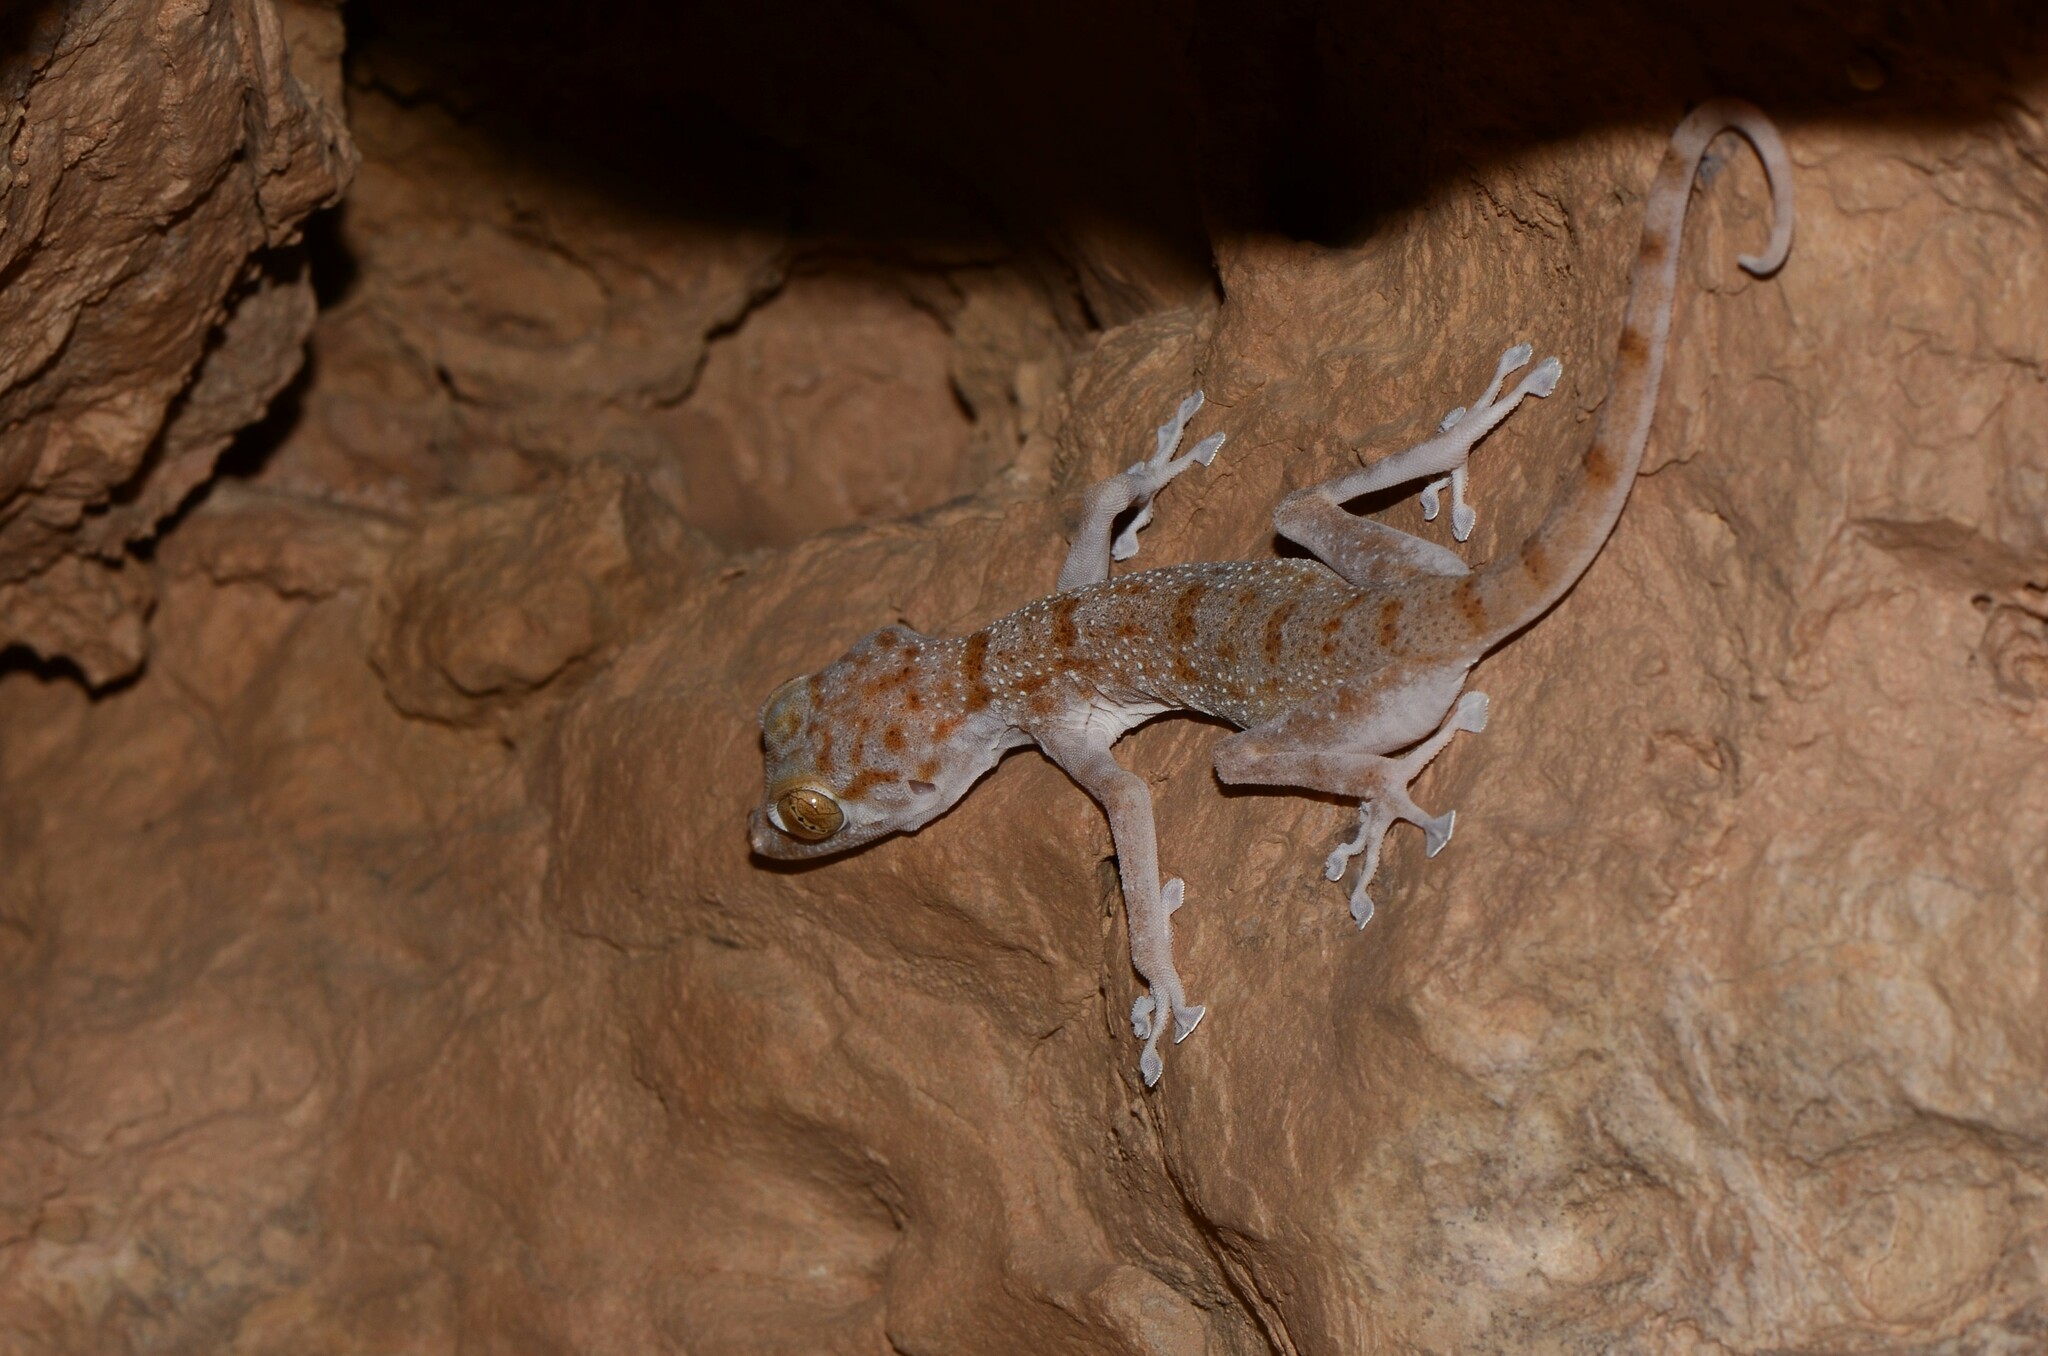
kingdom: Animalia
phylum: Chordata
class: Squamata
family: Phyllodactylidae
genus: Ptyodactylus
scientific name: Ptyodactylus hasselquistii
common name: Hasselquist’s fan-footed gecko
